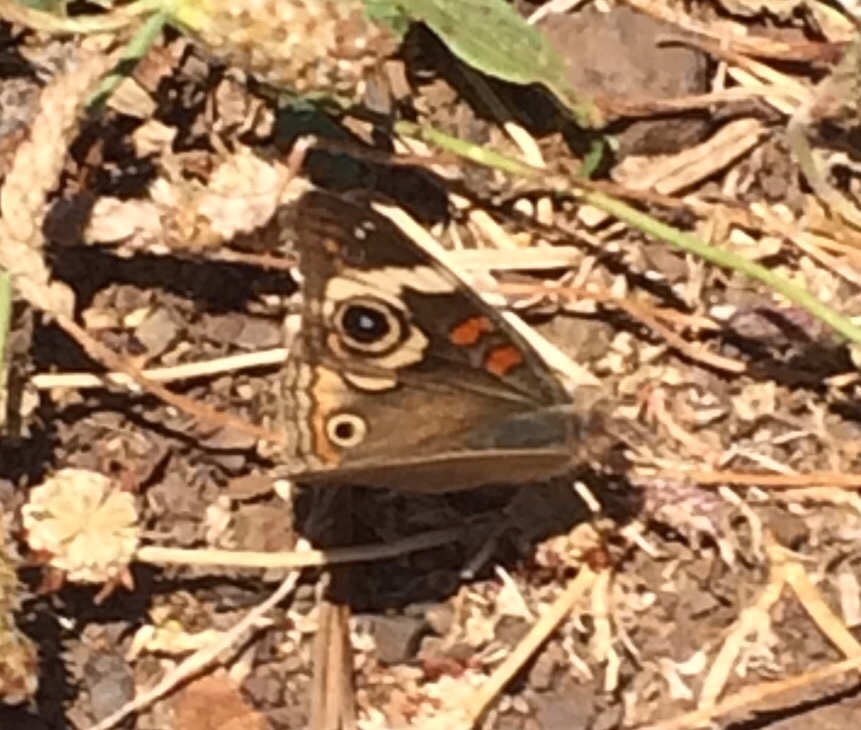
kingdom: Animalia
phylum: Arthropoda
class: Insecta
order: Lepidoptera
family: Nymphalidae
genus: Junonia
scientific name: Junonia grisea
